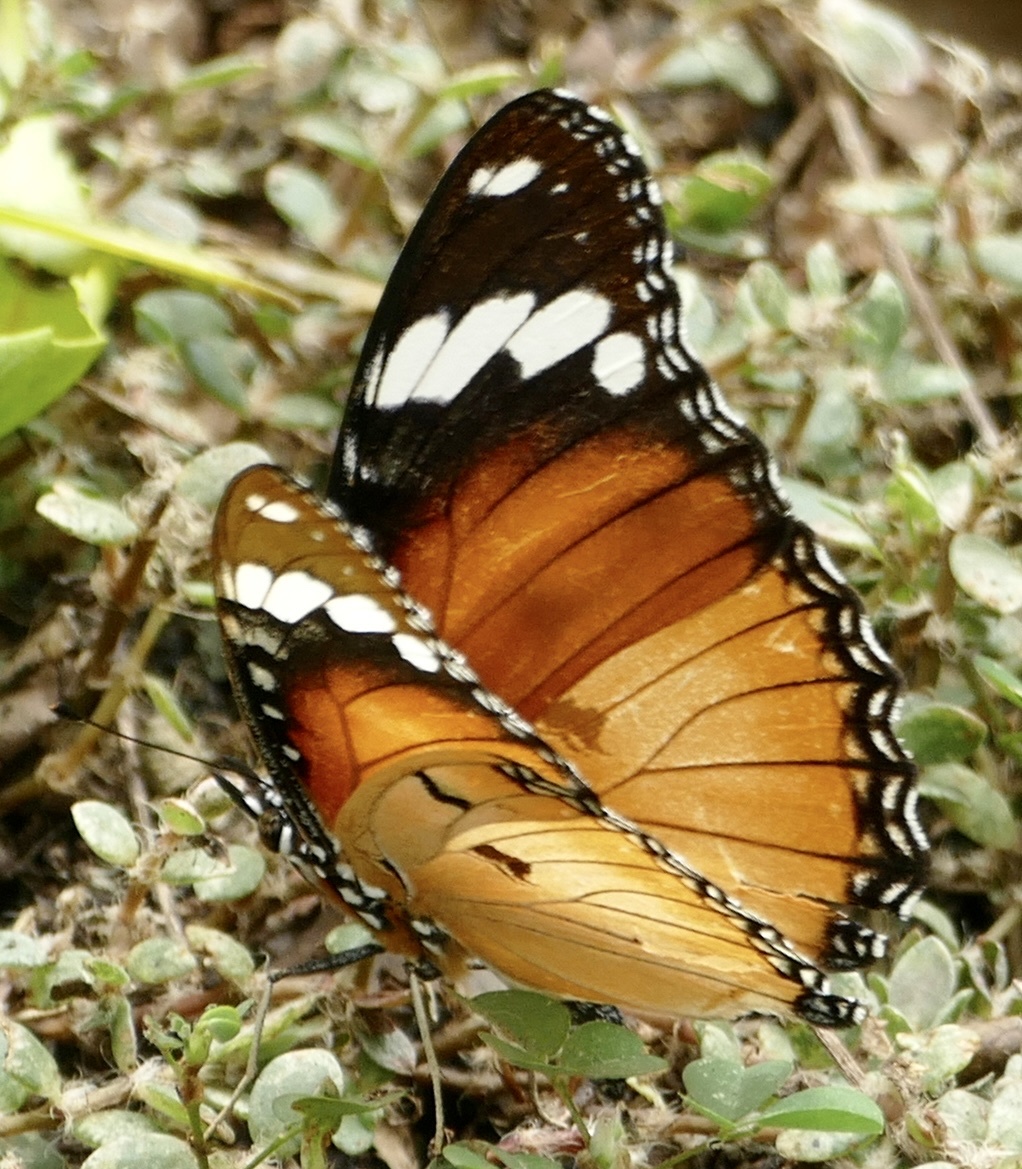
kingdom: Animalia
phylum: Arthropoda
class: Insecta
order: Lepidoptera
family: Nymphalidae
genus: Hypolimnas
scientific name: Hypolimnas misippus
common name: False plain tiger
